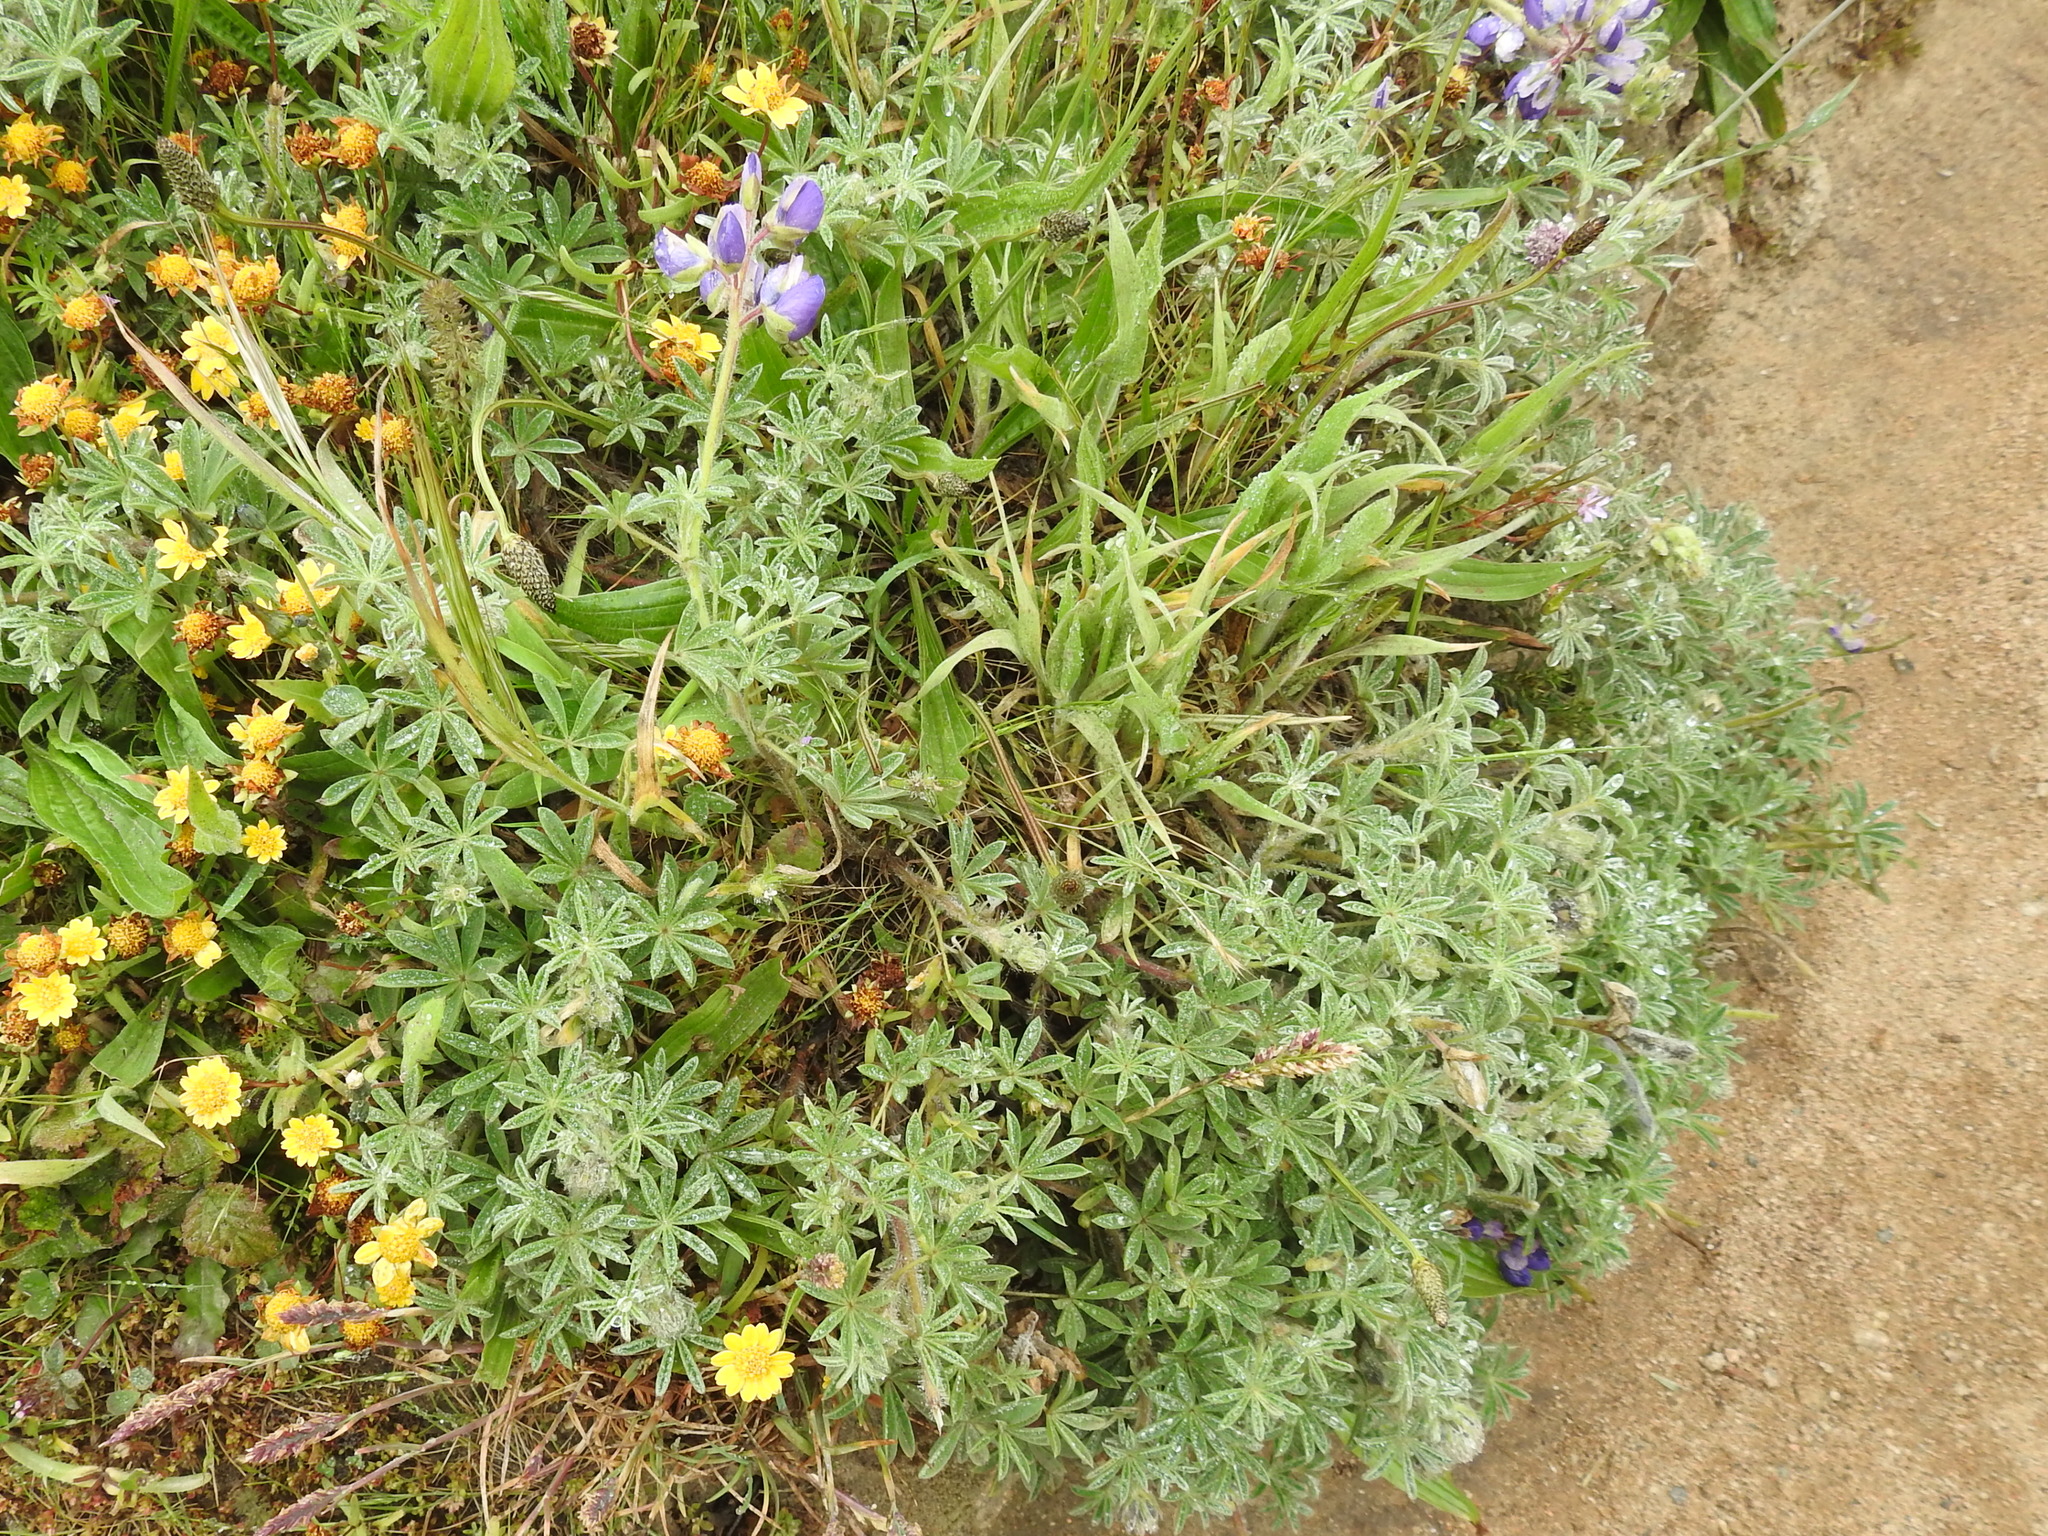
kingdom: Plantae
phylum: Tracheophyta
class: Magnoliopsida
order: Fabales
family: Fabaceae
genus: Lupinus
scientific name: Lupinus nanus
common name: Orean blue lupin
